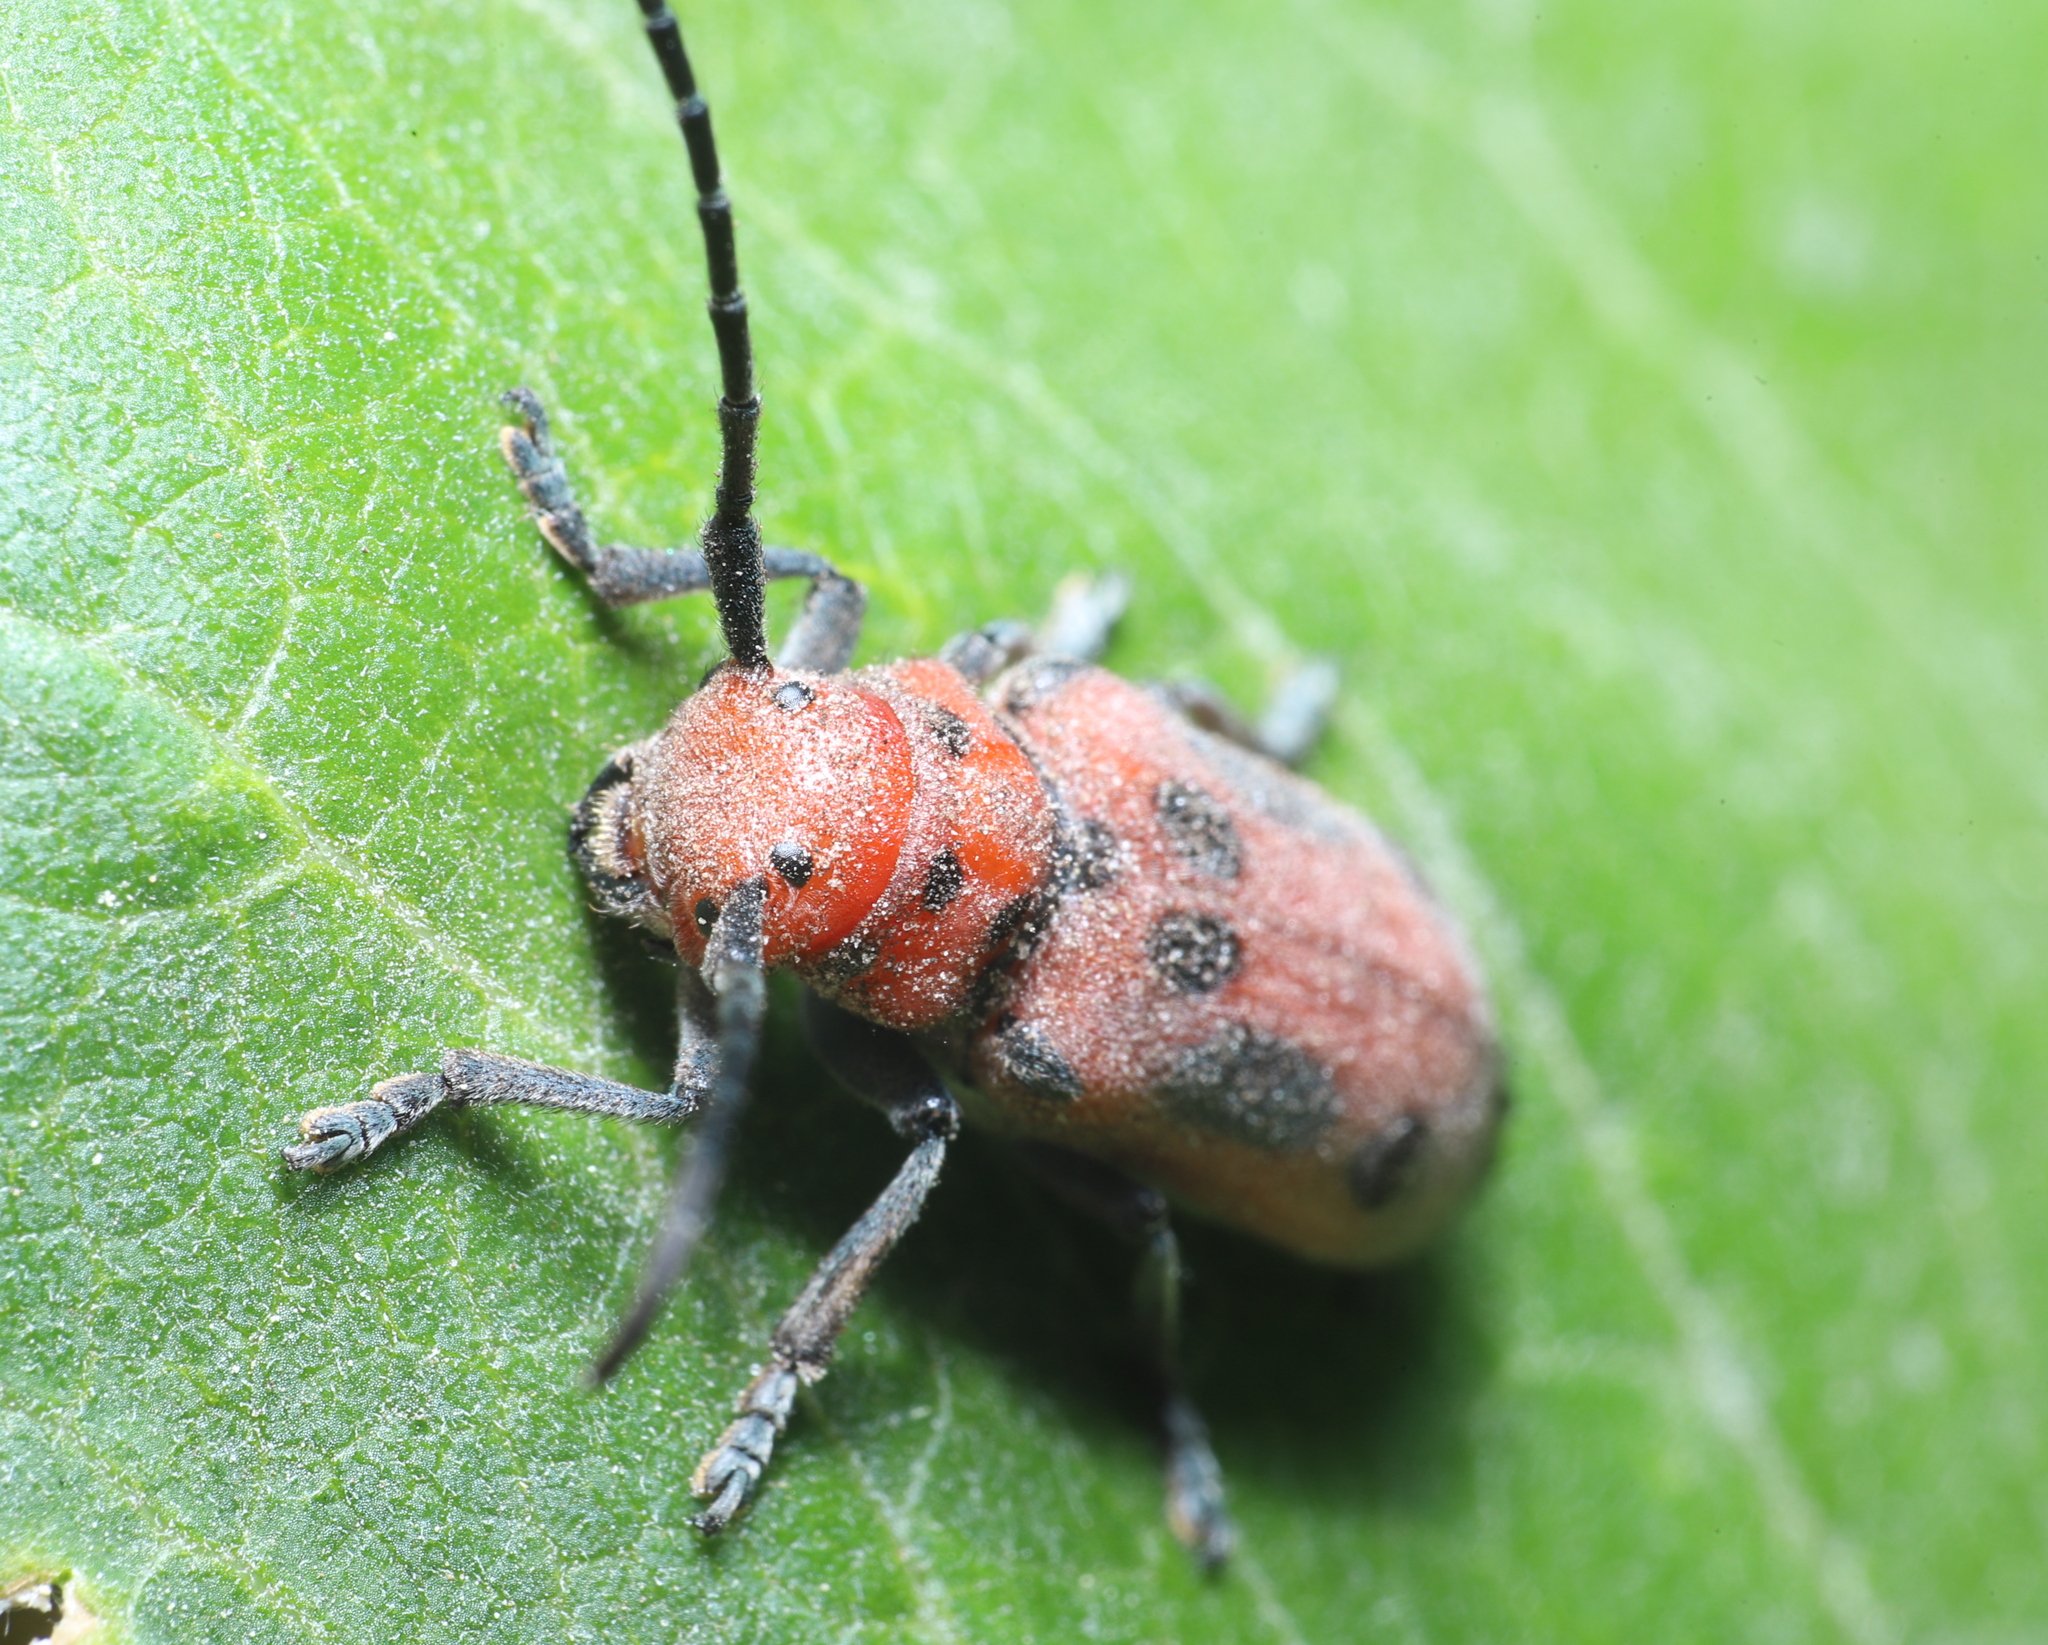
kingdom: Animalia
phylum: Arthropoda
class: Insecta
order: Coleoptera
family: Cerambycidae
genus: Tetraopes
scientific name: Tetraopes tetrophthalmus
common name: Red milkweed beetle
